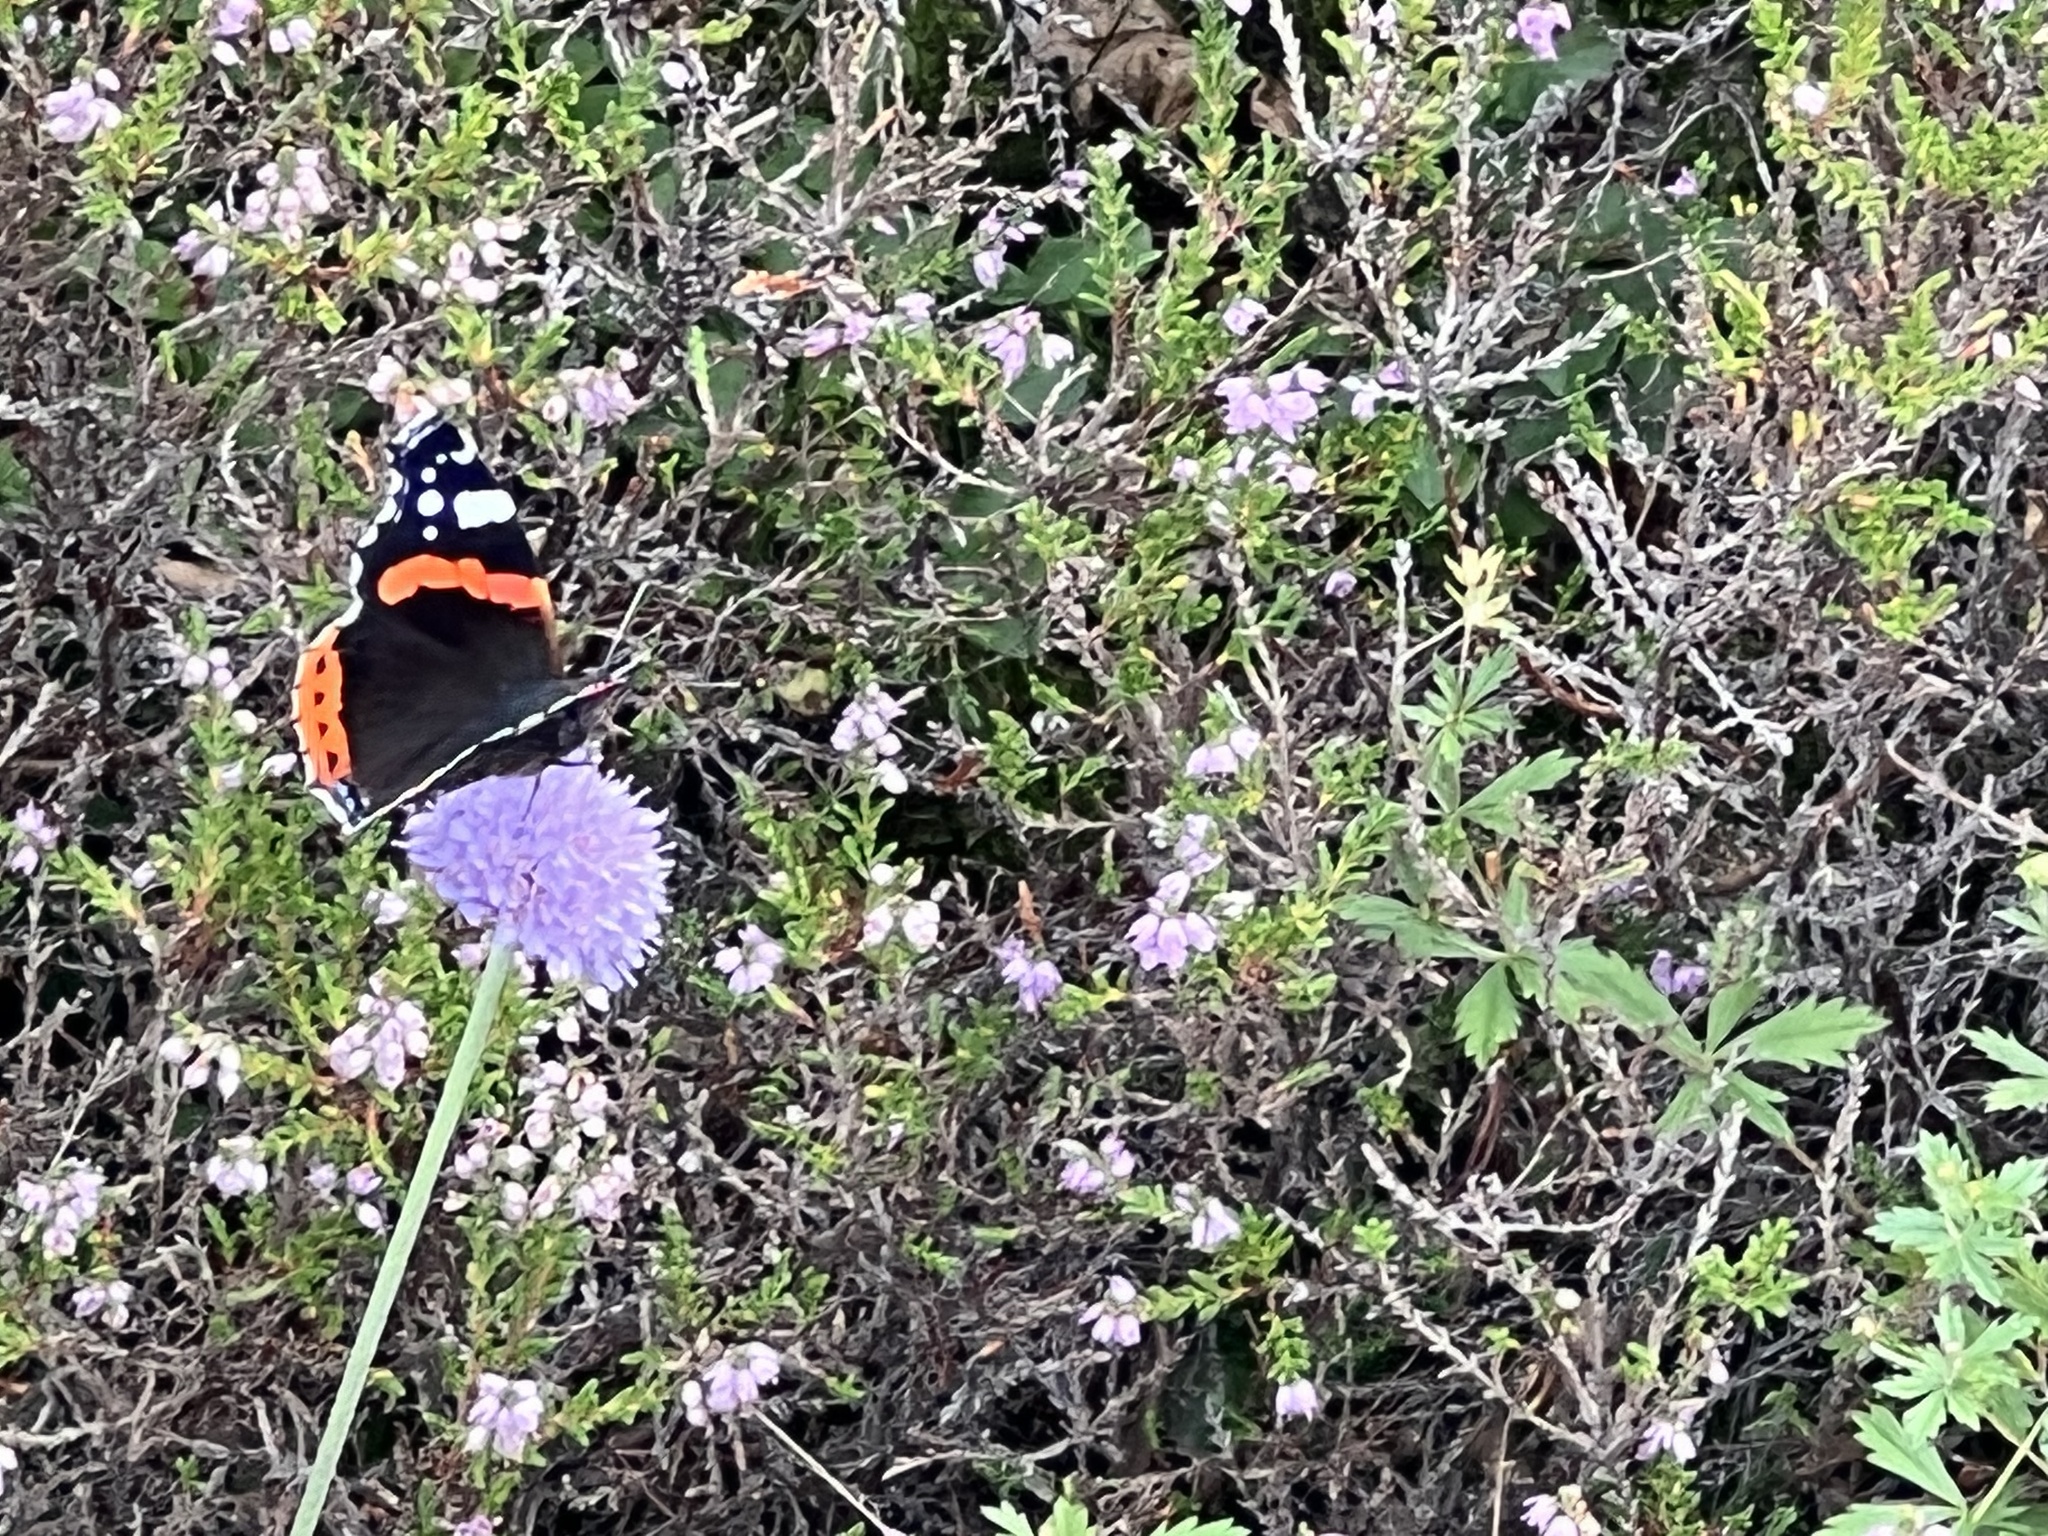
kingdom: Animalia
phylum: Arthropoda
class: Insecta
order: Lepidoptera
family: Nymphalidae
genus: Vanessa
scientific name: Vanessa atalanta
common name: Red admiral
